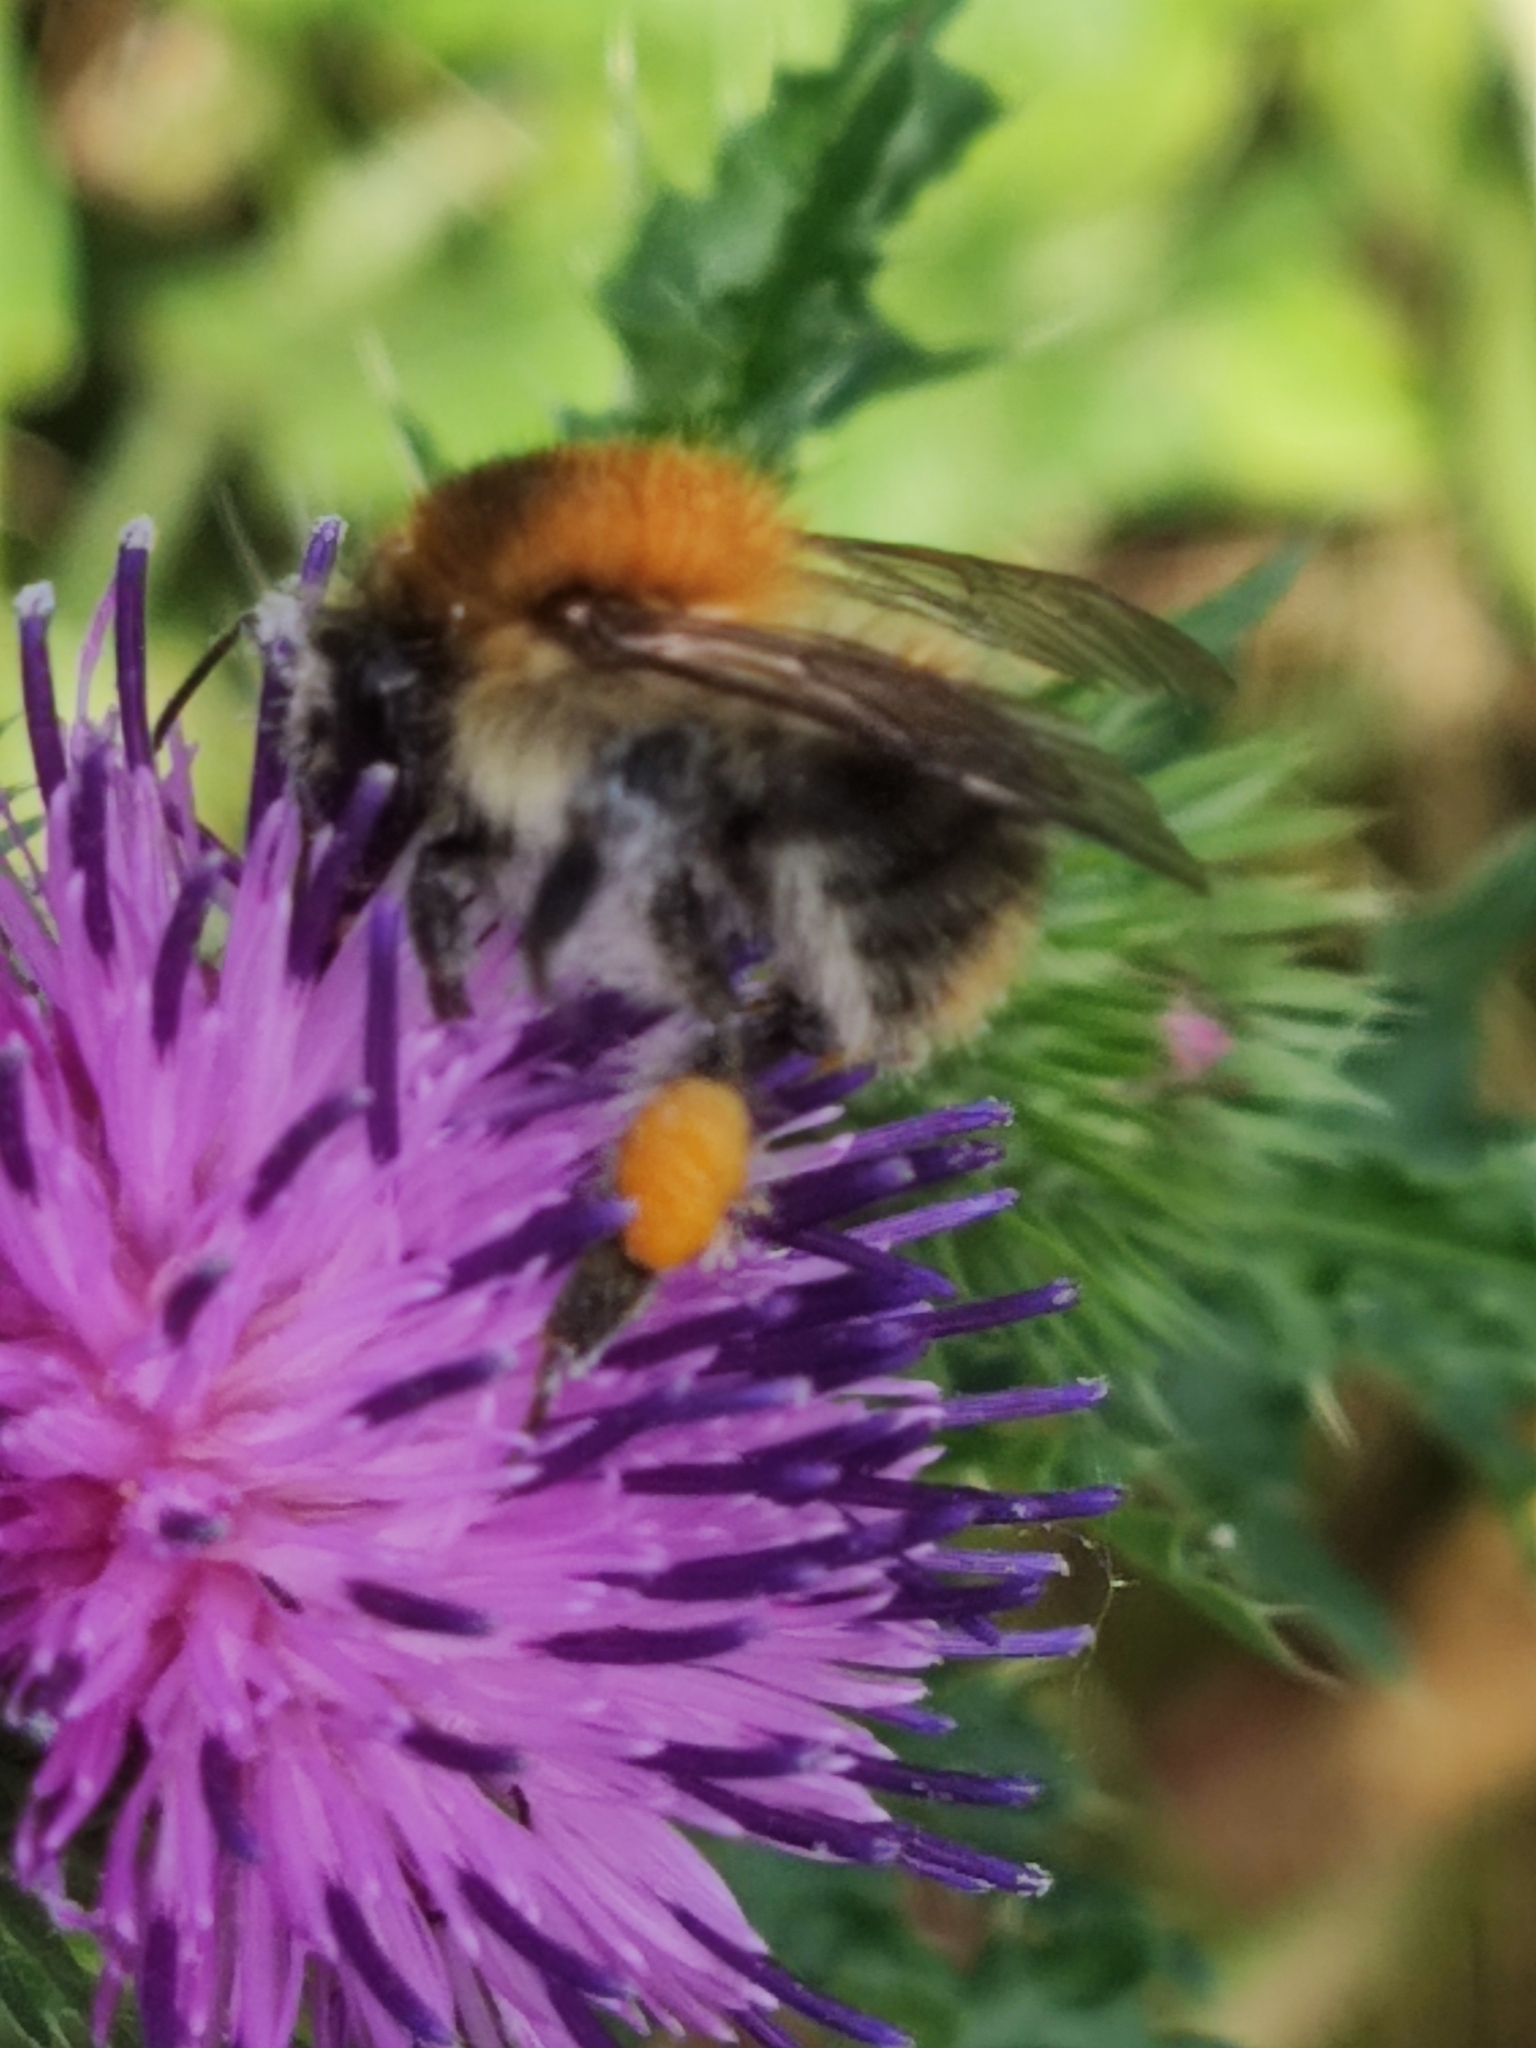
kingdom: Animalia
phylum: Arthropoda
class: Insecta
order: Hymenoptera
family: Apidae
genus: Bombus
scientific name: Bombus pascuorum
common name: Common carder bee
